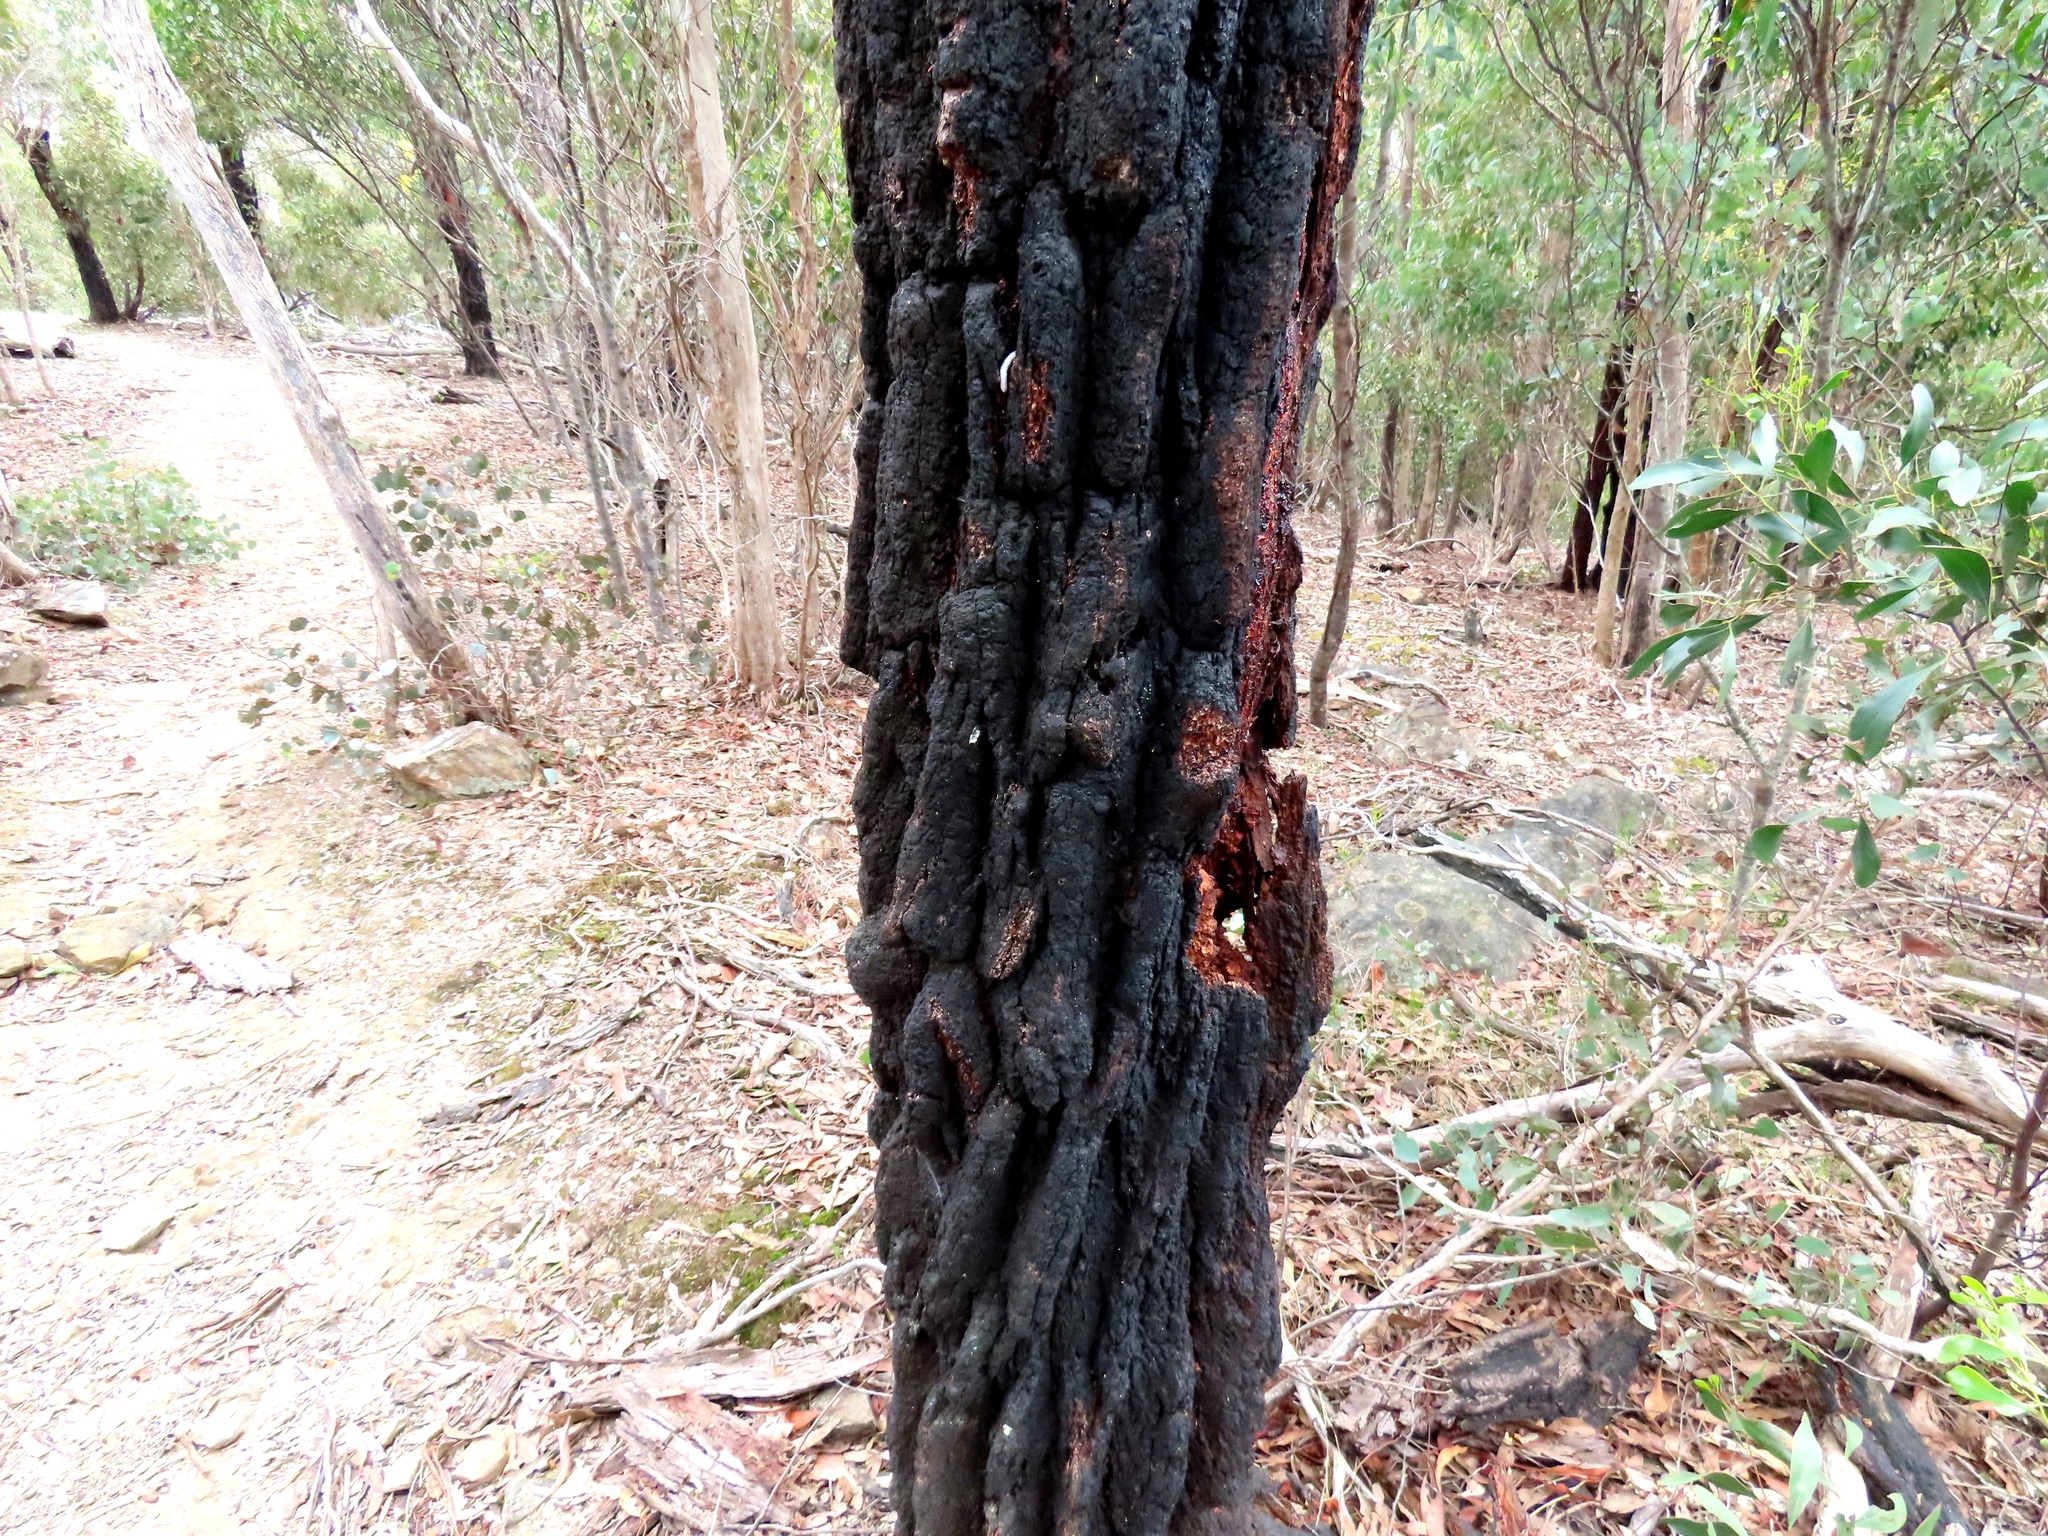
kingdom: Plantae
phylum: Tracheophyta
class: Magnoliopsida
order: Myrtales
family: Myrtaceae
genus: Eucalyptus
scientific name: Eucalyptus tricarpa
